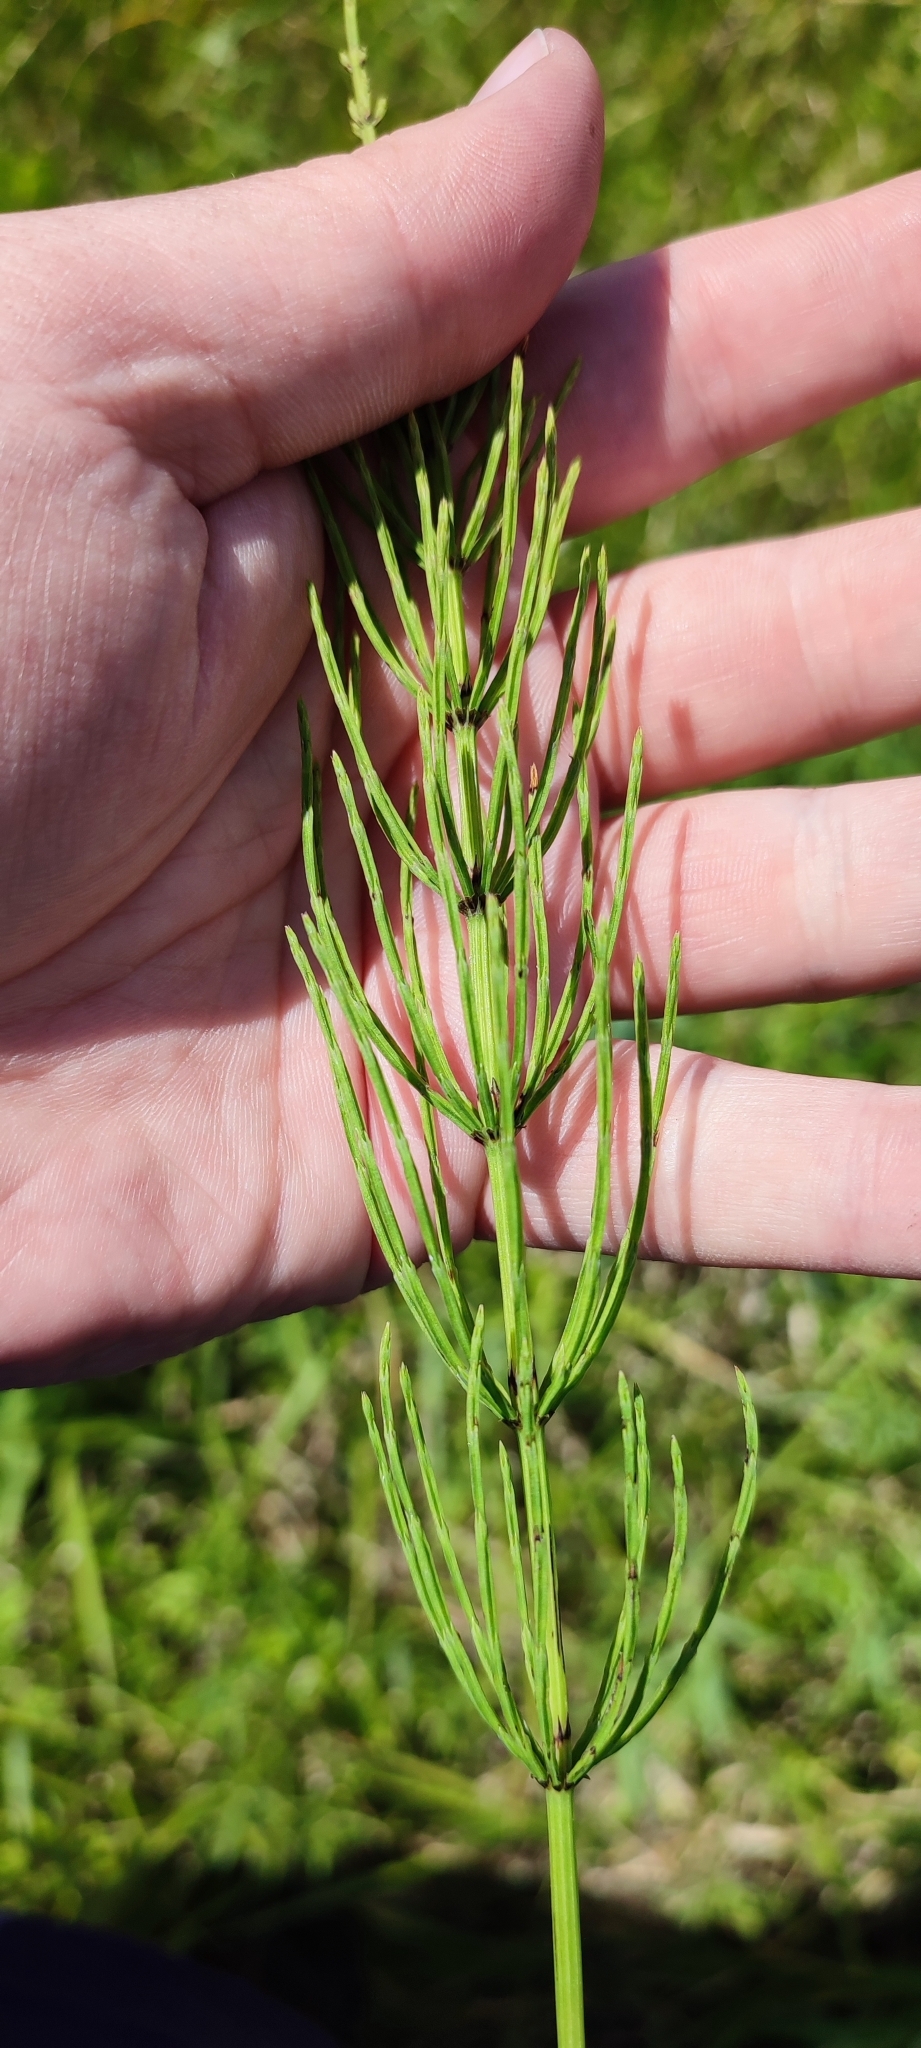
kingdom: Plantae
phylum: Tracheophyta
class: Polypodiopsida
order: Equisetales
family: Equisetaceae
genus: Equisetum
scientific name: Equisetum arvense
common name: Field horsetail
